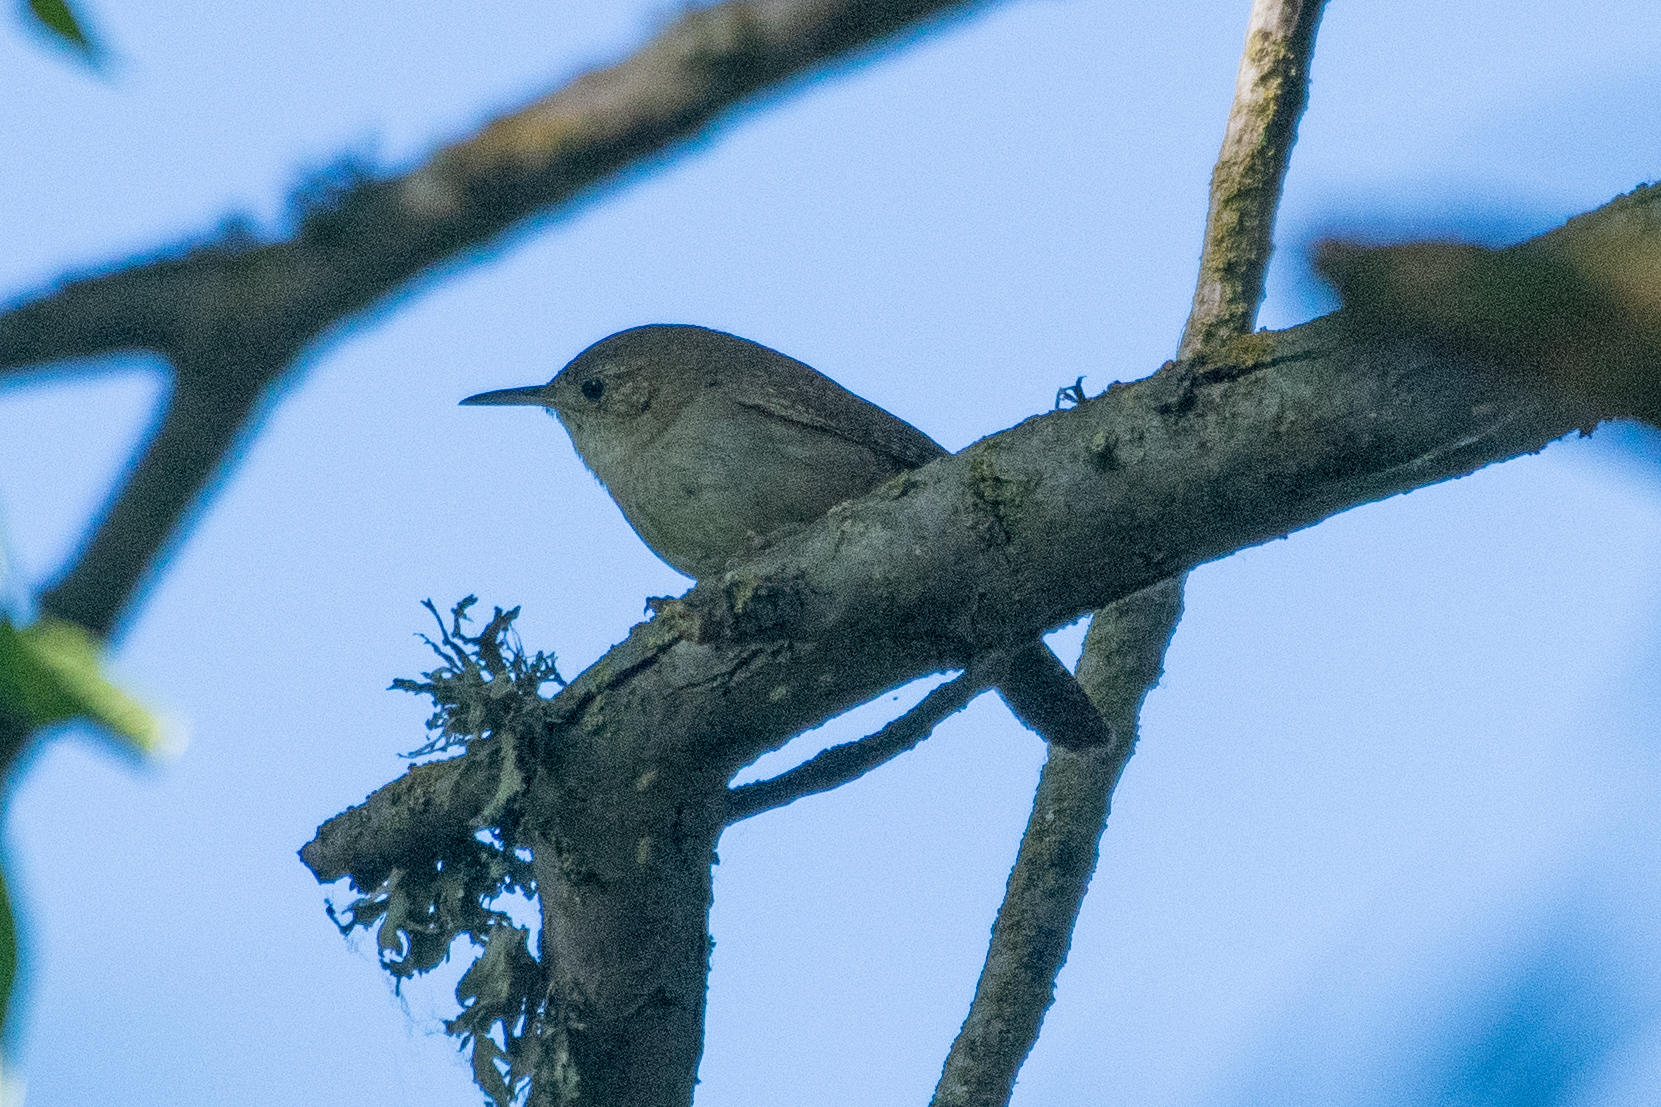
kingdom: Animalia
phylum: Chordata
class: Aves
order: Passeriformes
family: Troglodytidae
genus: Troglodytes
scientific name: Troglodytes aedon
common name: House wren
